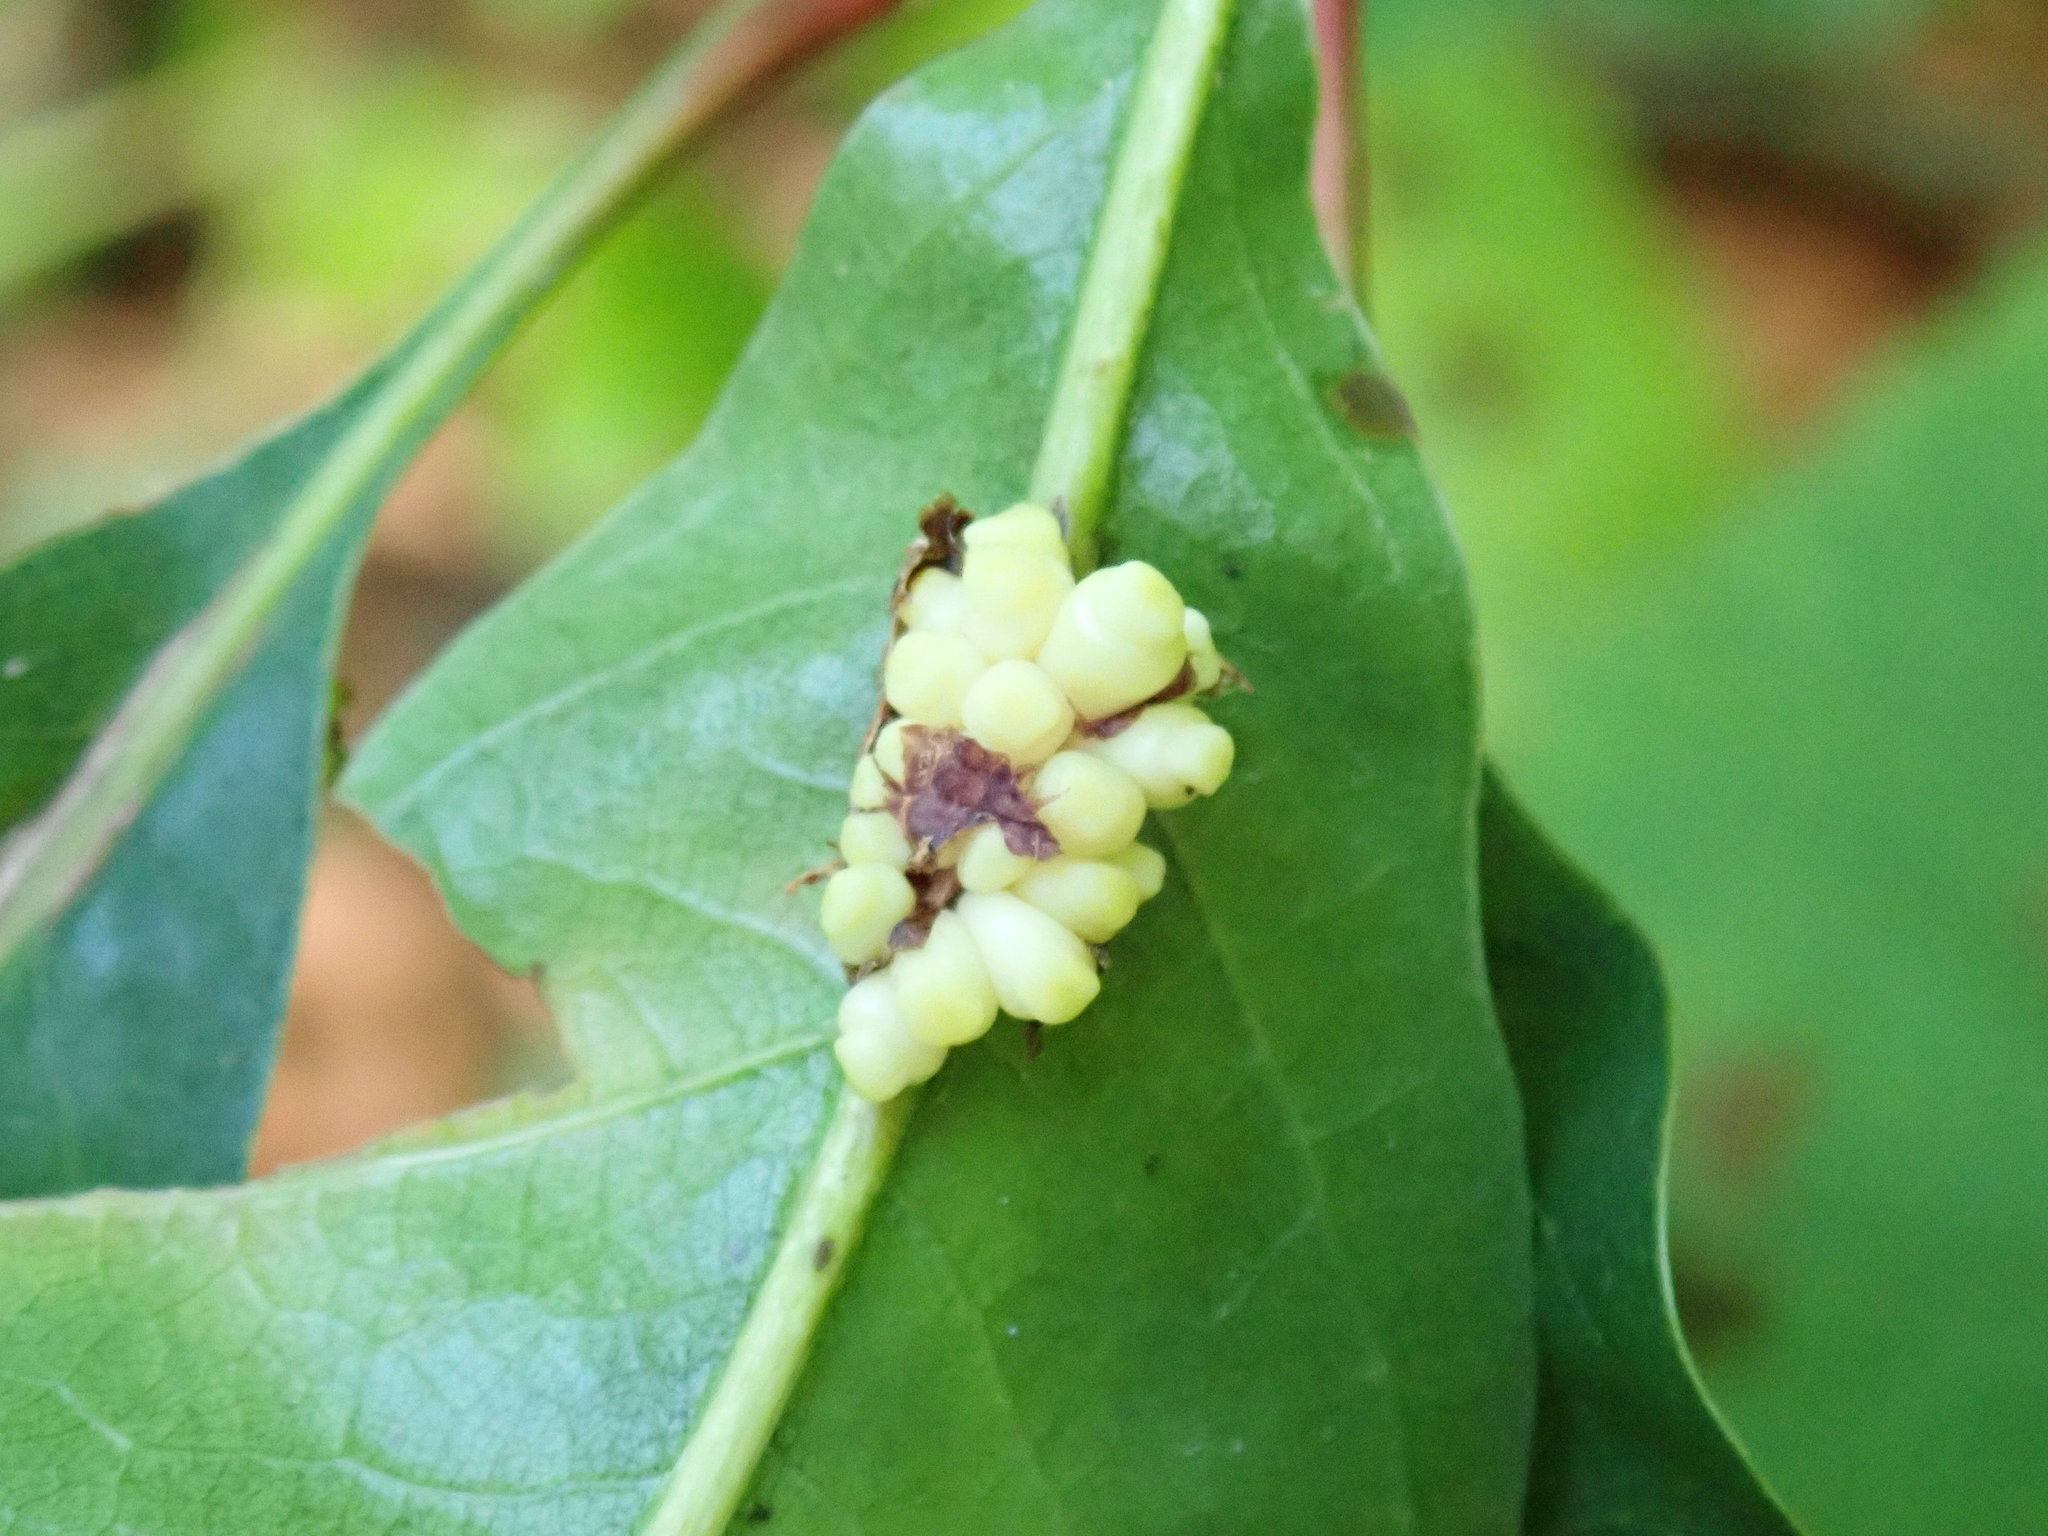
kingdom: Animalia
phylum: Arthropoda
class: Insecta
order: Hymenoptera
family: Cynipidae
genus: Kokkocynips
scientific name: Kokkocynips decidua
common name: Oak wheat gall
